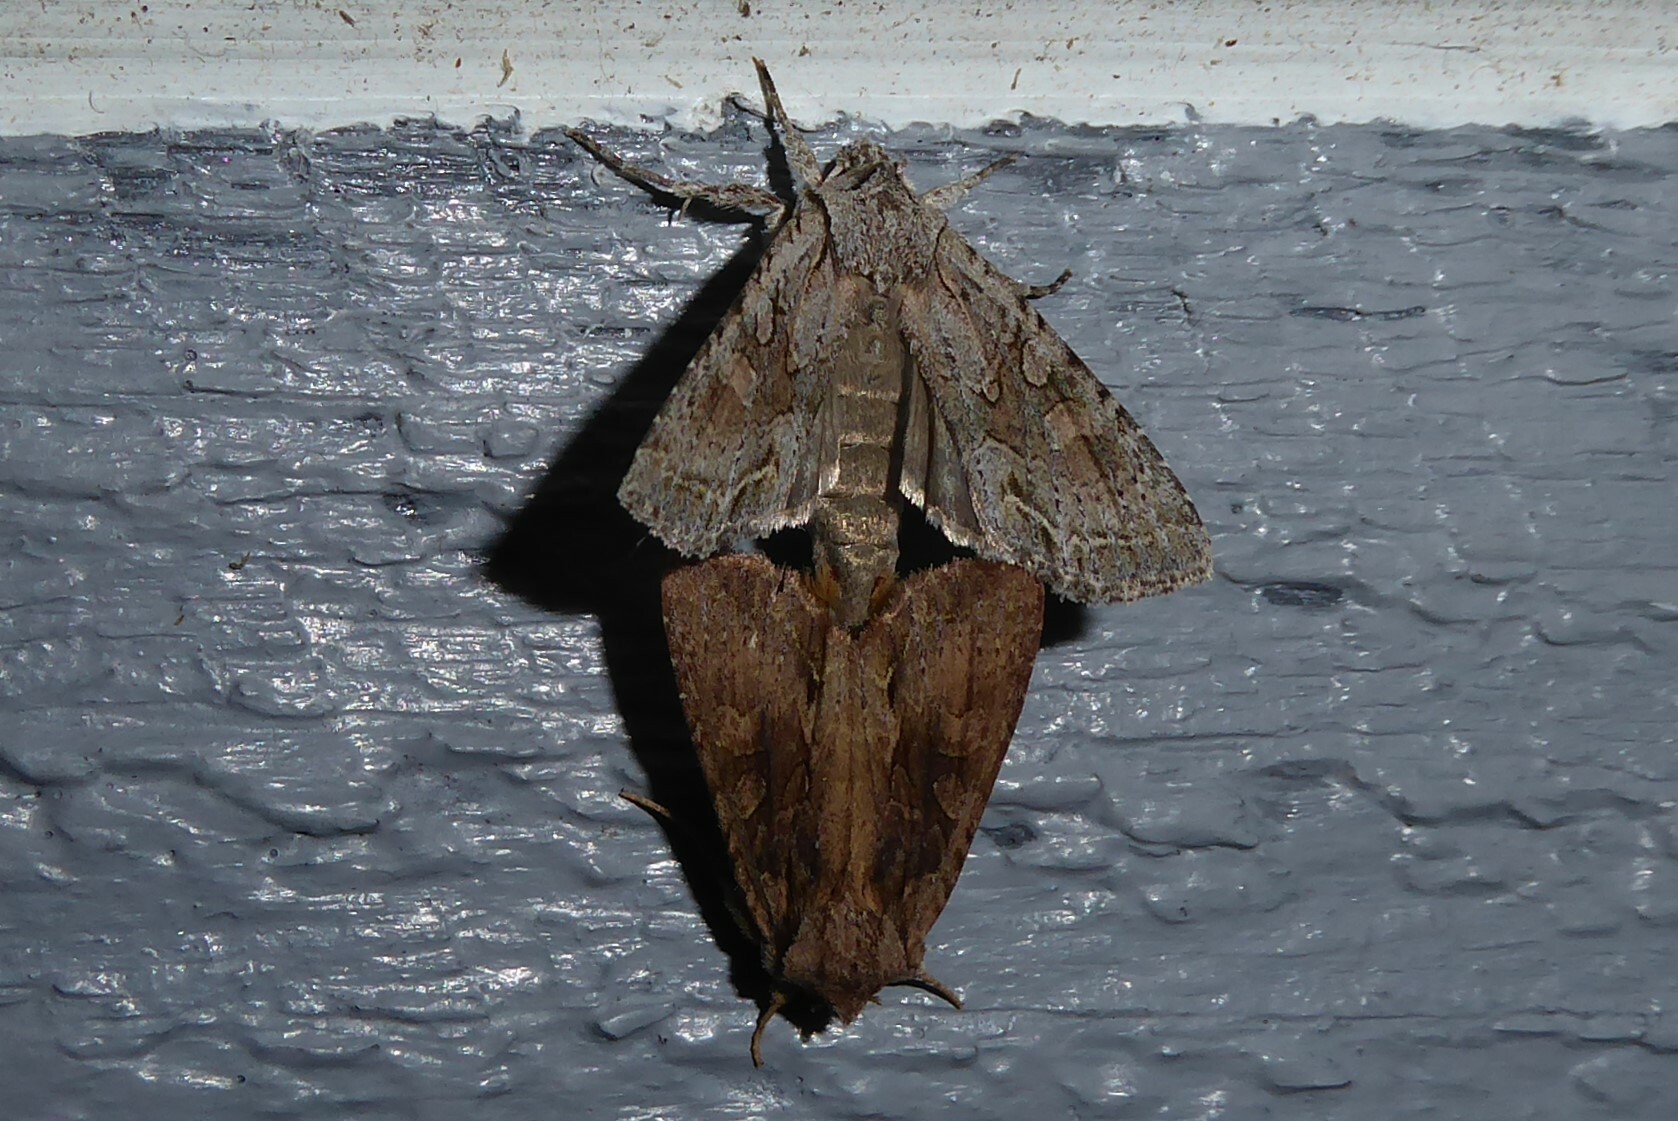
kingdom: Animalia
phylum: Arthropoda
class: Insecta
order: Lepidoptera
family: Noctuidae
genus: Ichneutica
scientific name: Ichneutica mutans
